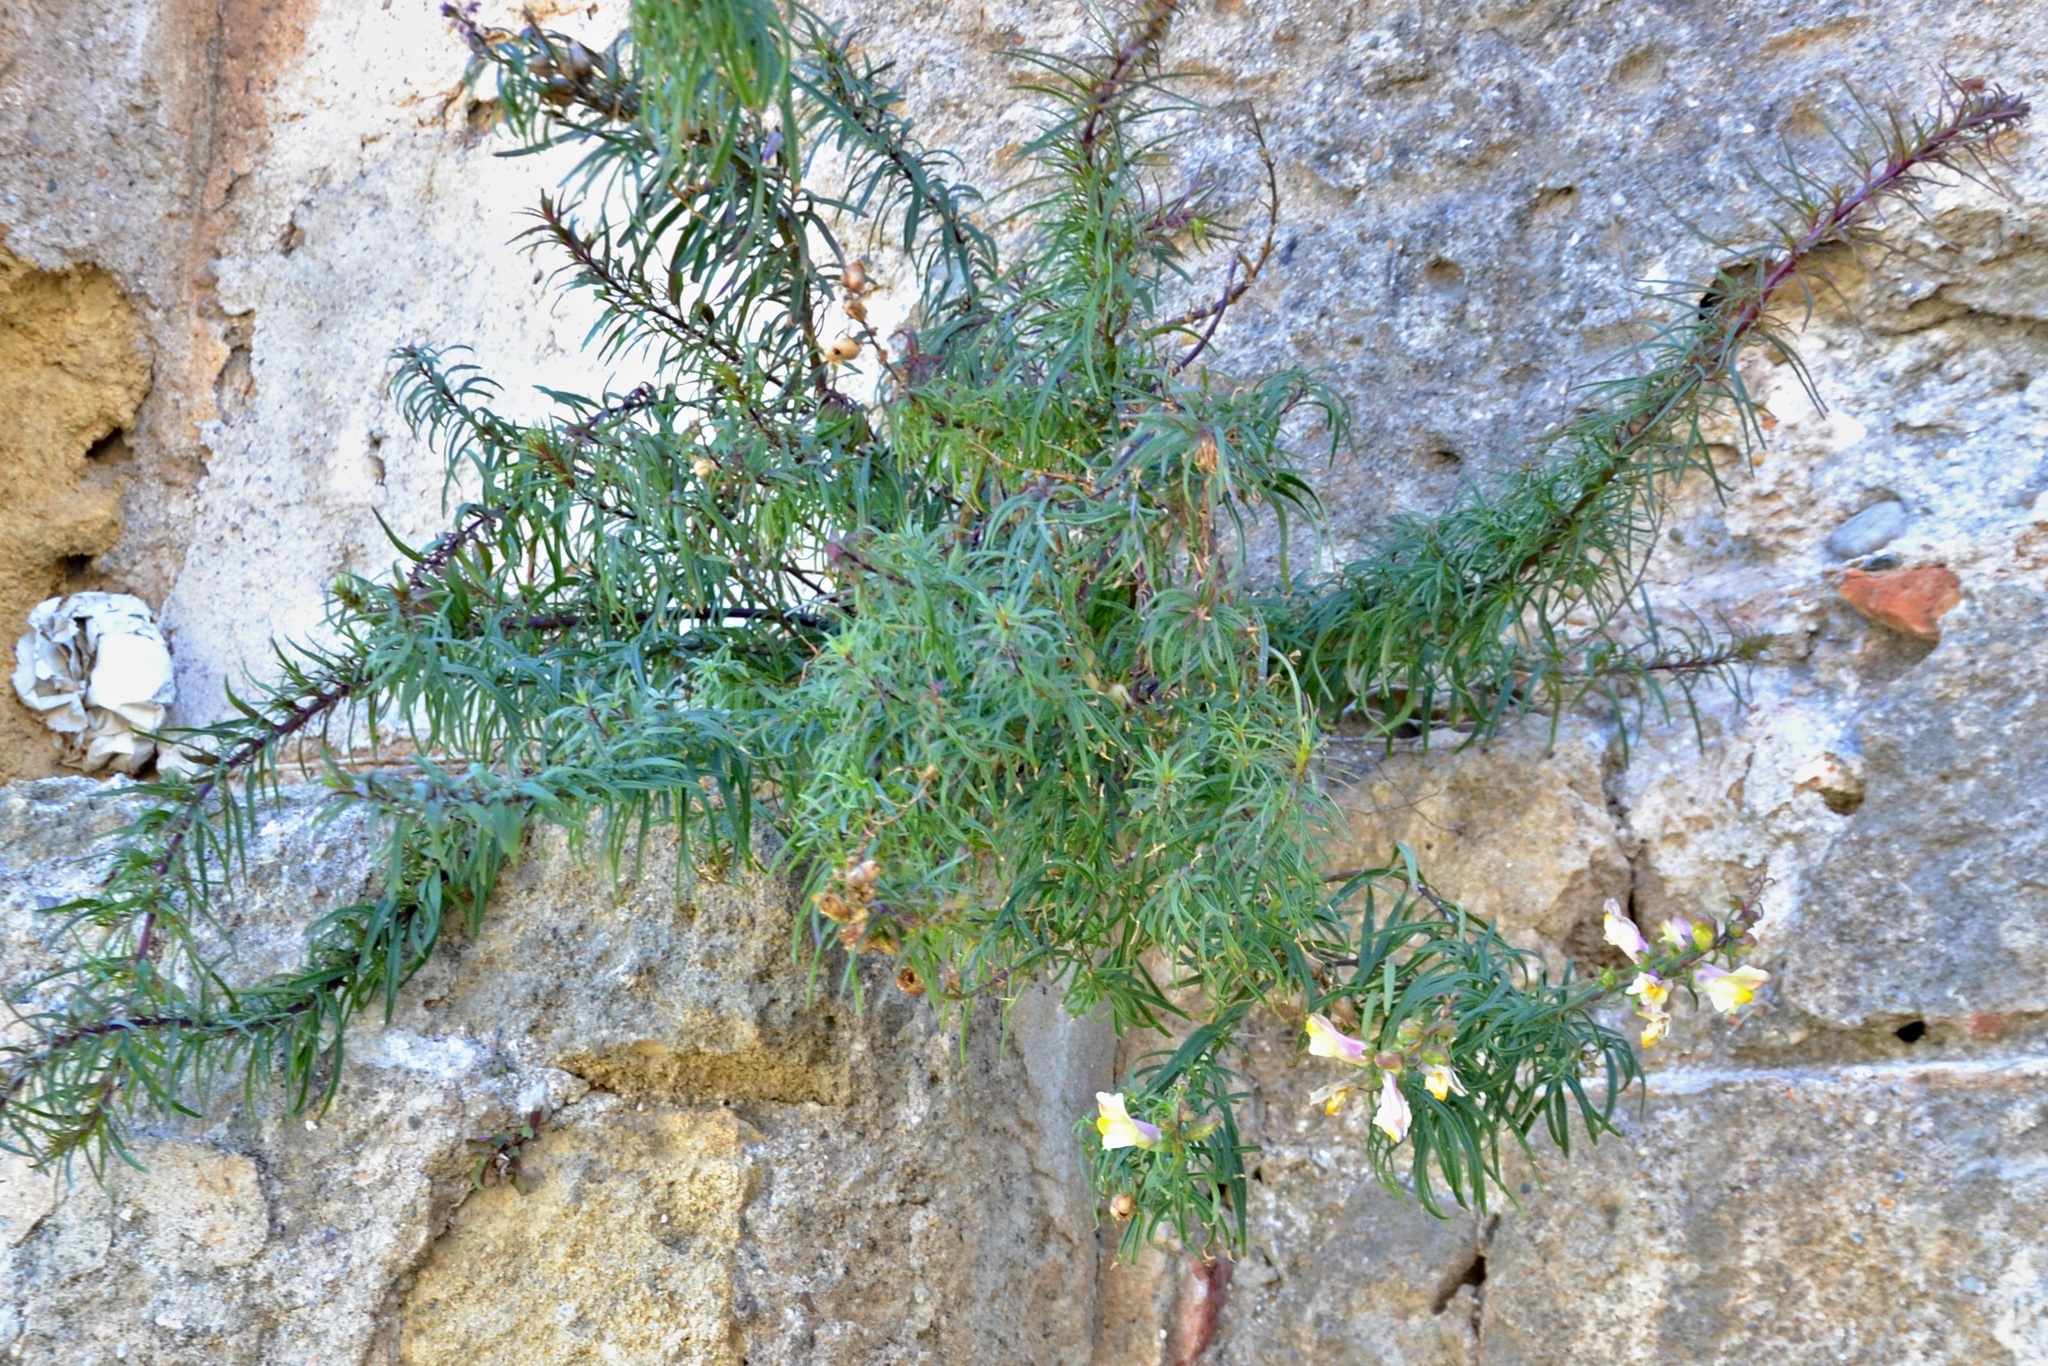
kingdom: Plantae
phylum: Tracheophyta
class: Magnoliopsida
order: Lamiales
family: Plantaginaceae
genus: Antirrhinum
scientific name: Antirrhinum siculum
